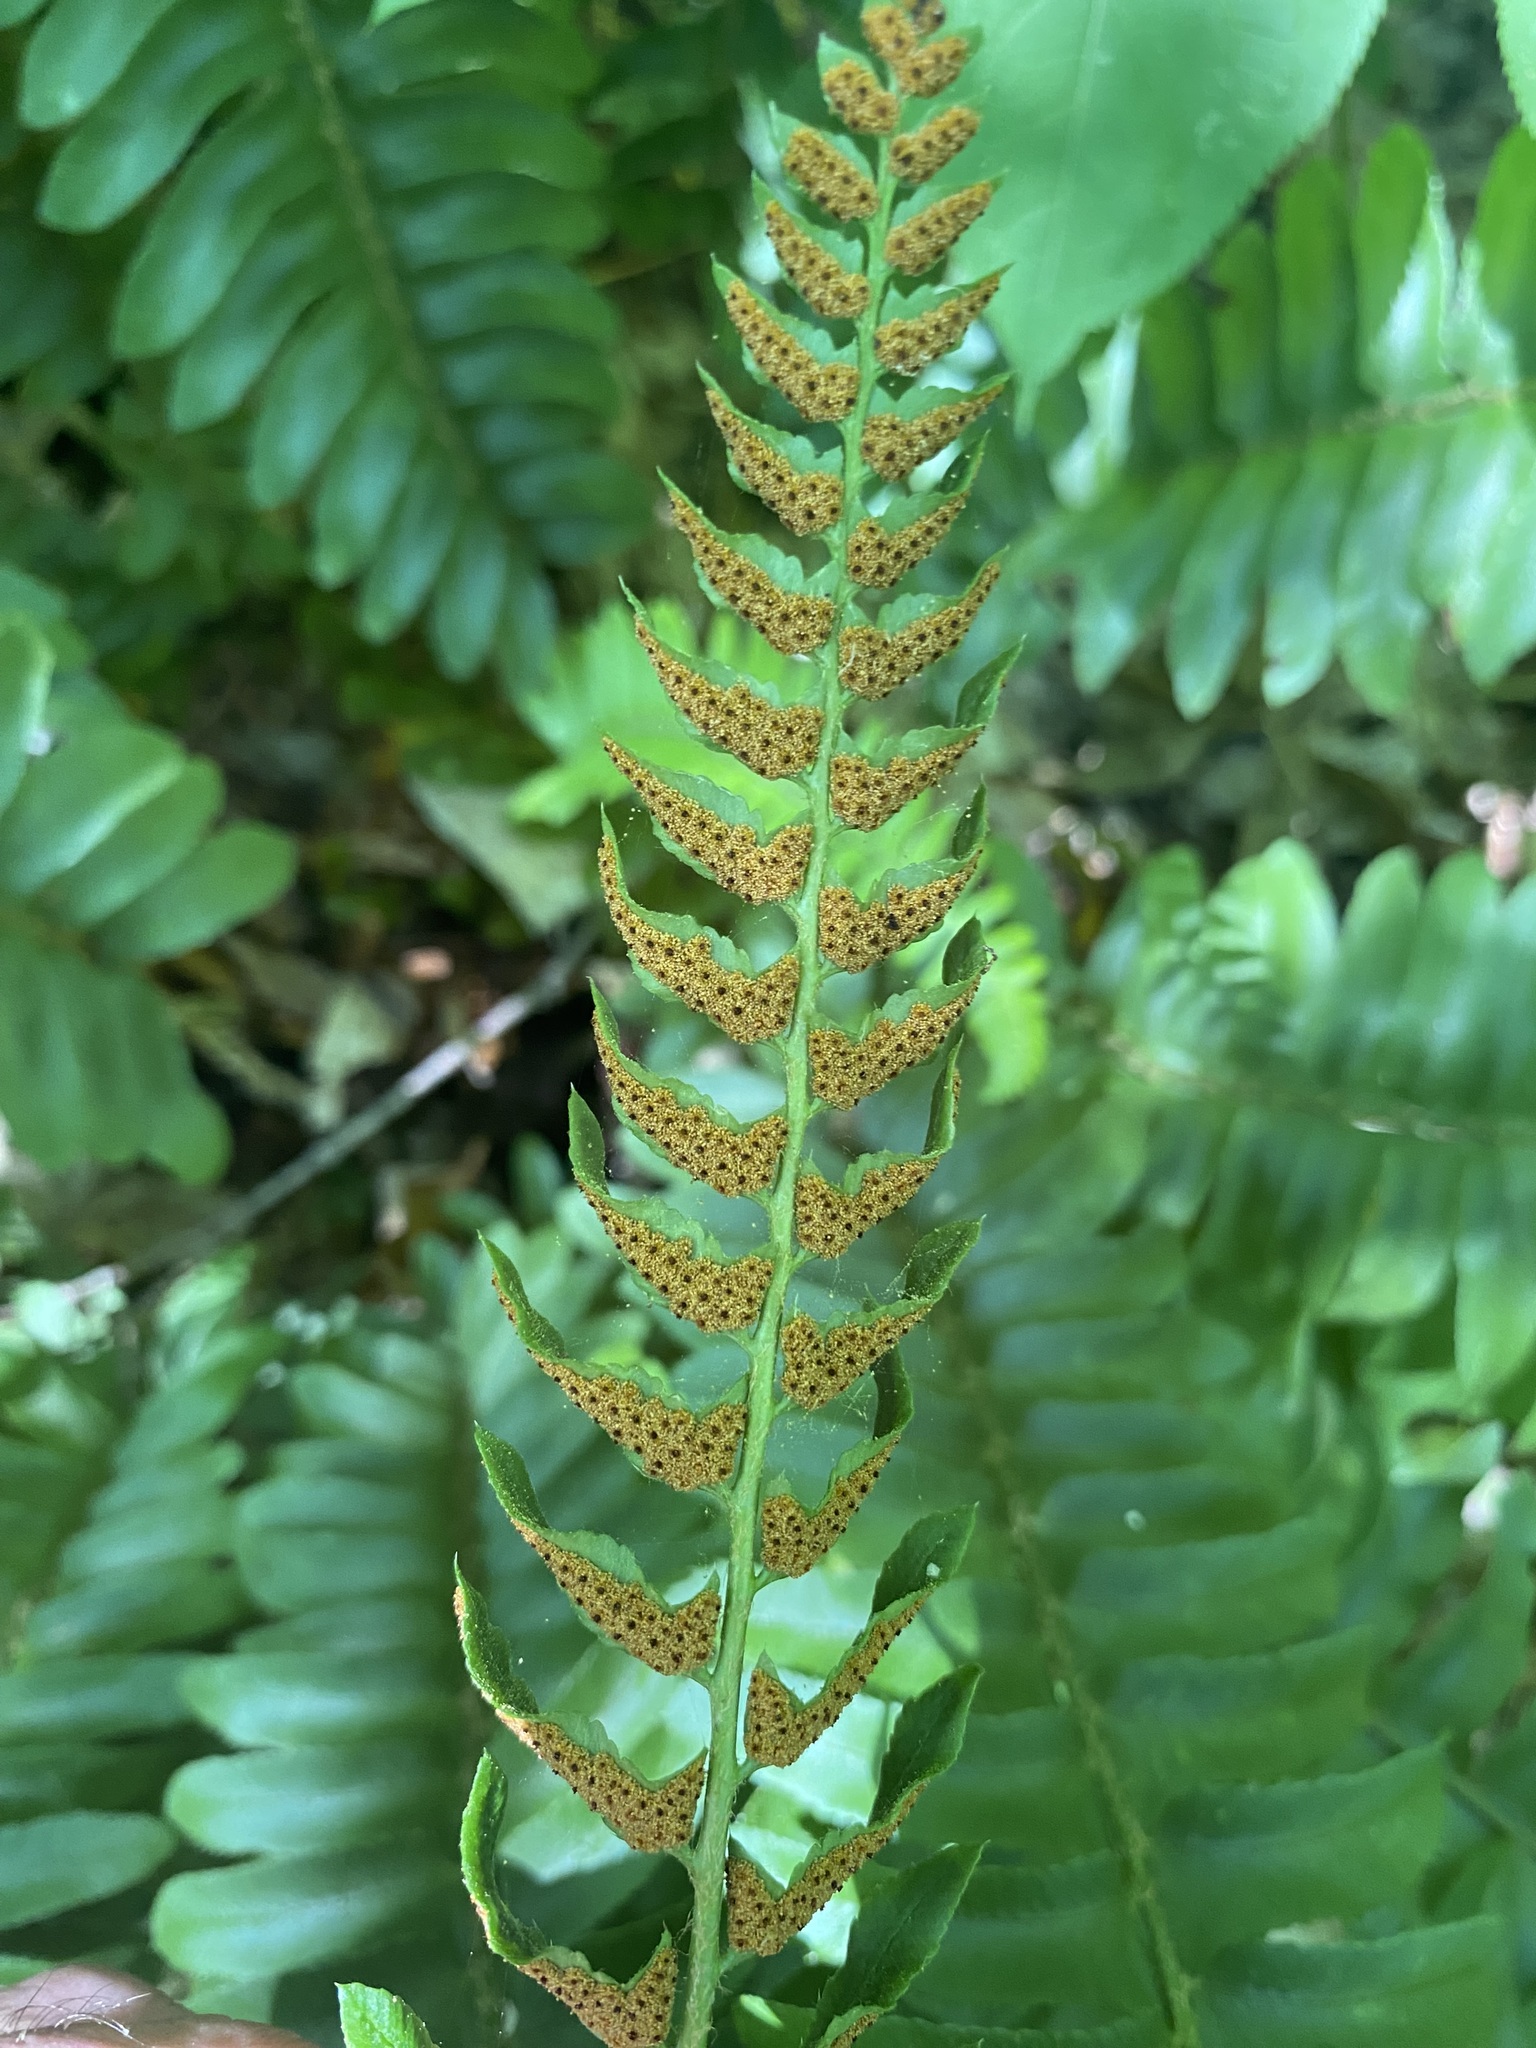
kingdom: Plantae
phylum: Tracheophyta
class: Polypodiopsida
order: Polypodiales
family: Dryopteridaceae
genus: Polystichum
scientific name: Polystichum acrostichoides
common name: Christmas fern
